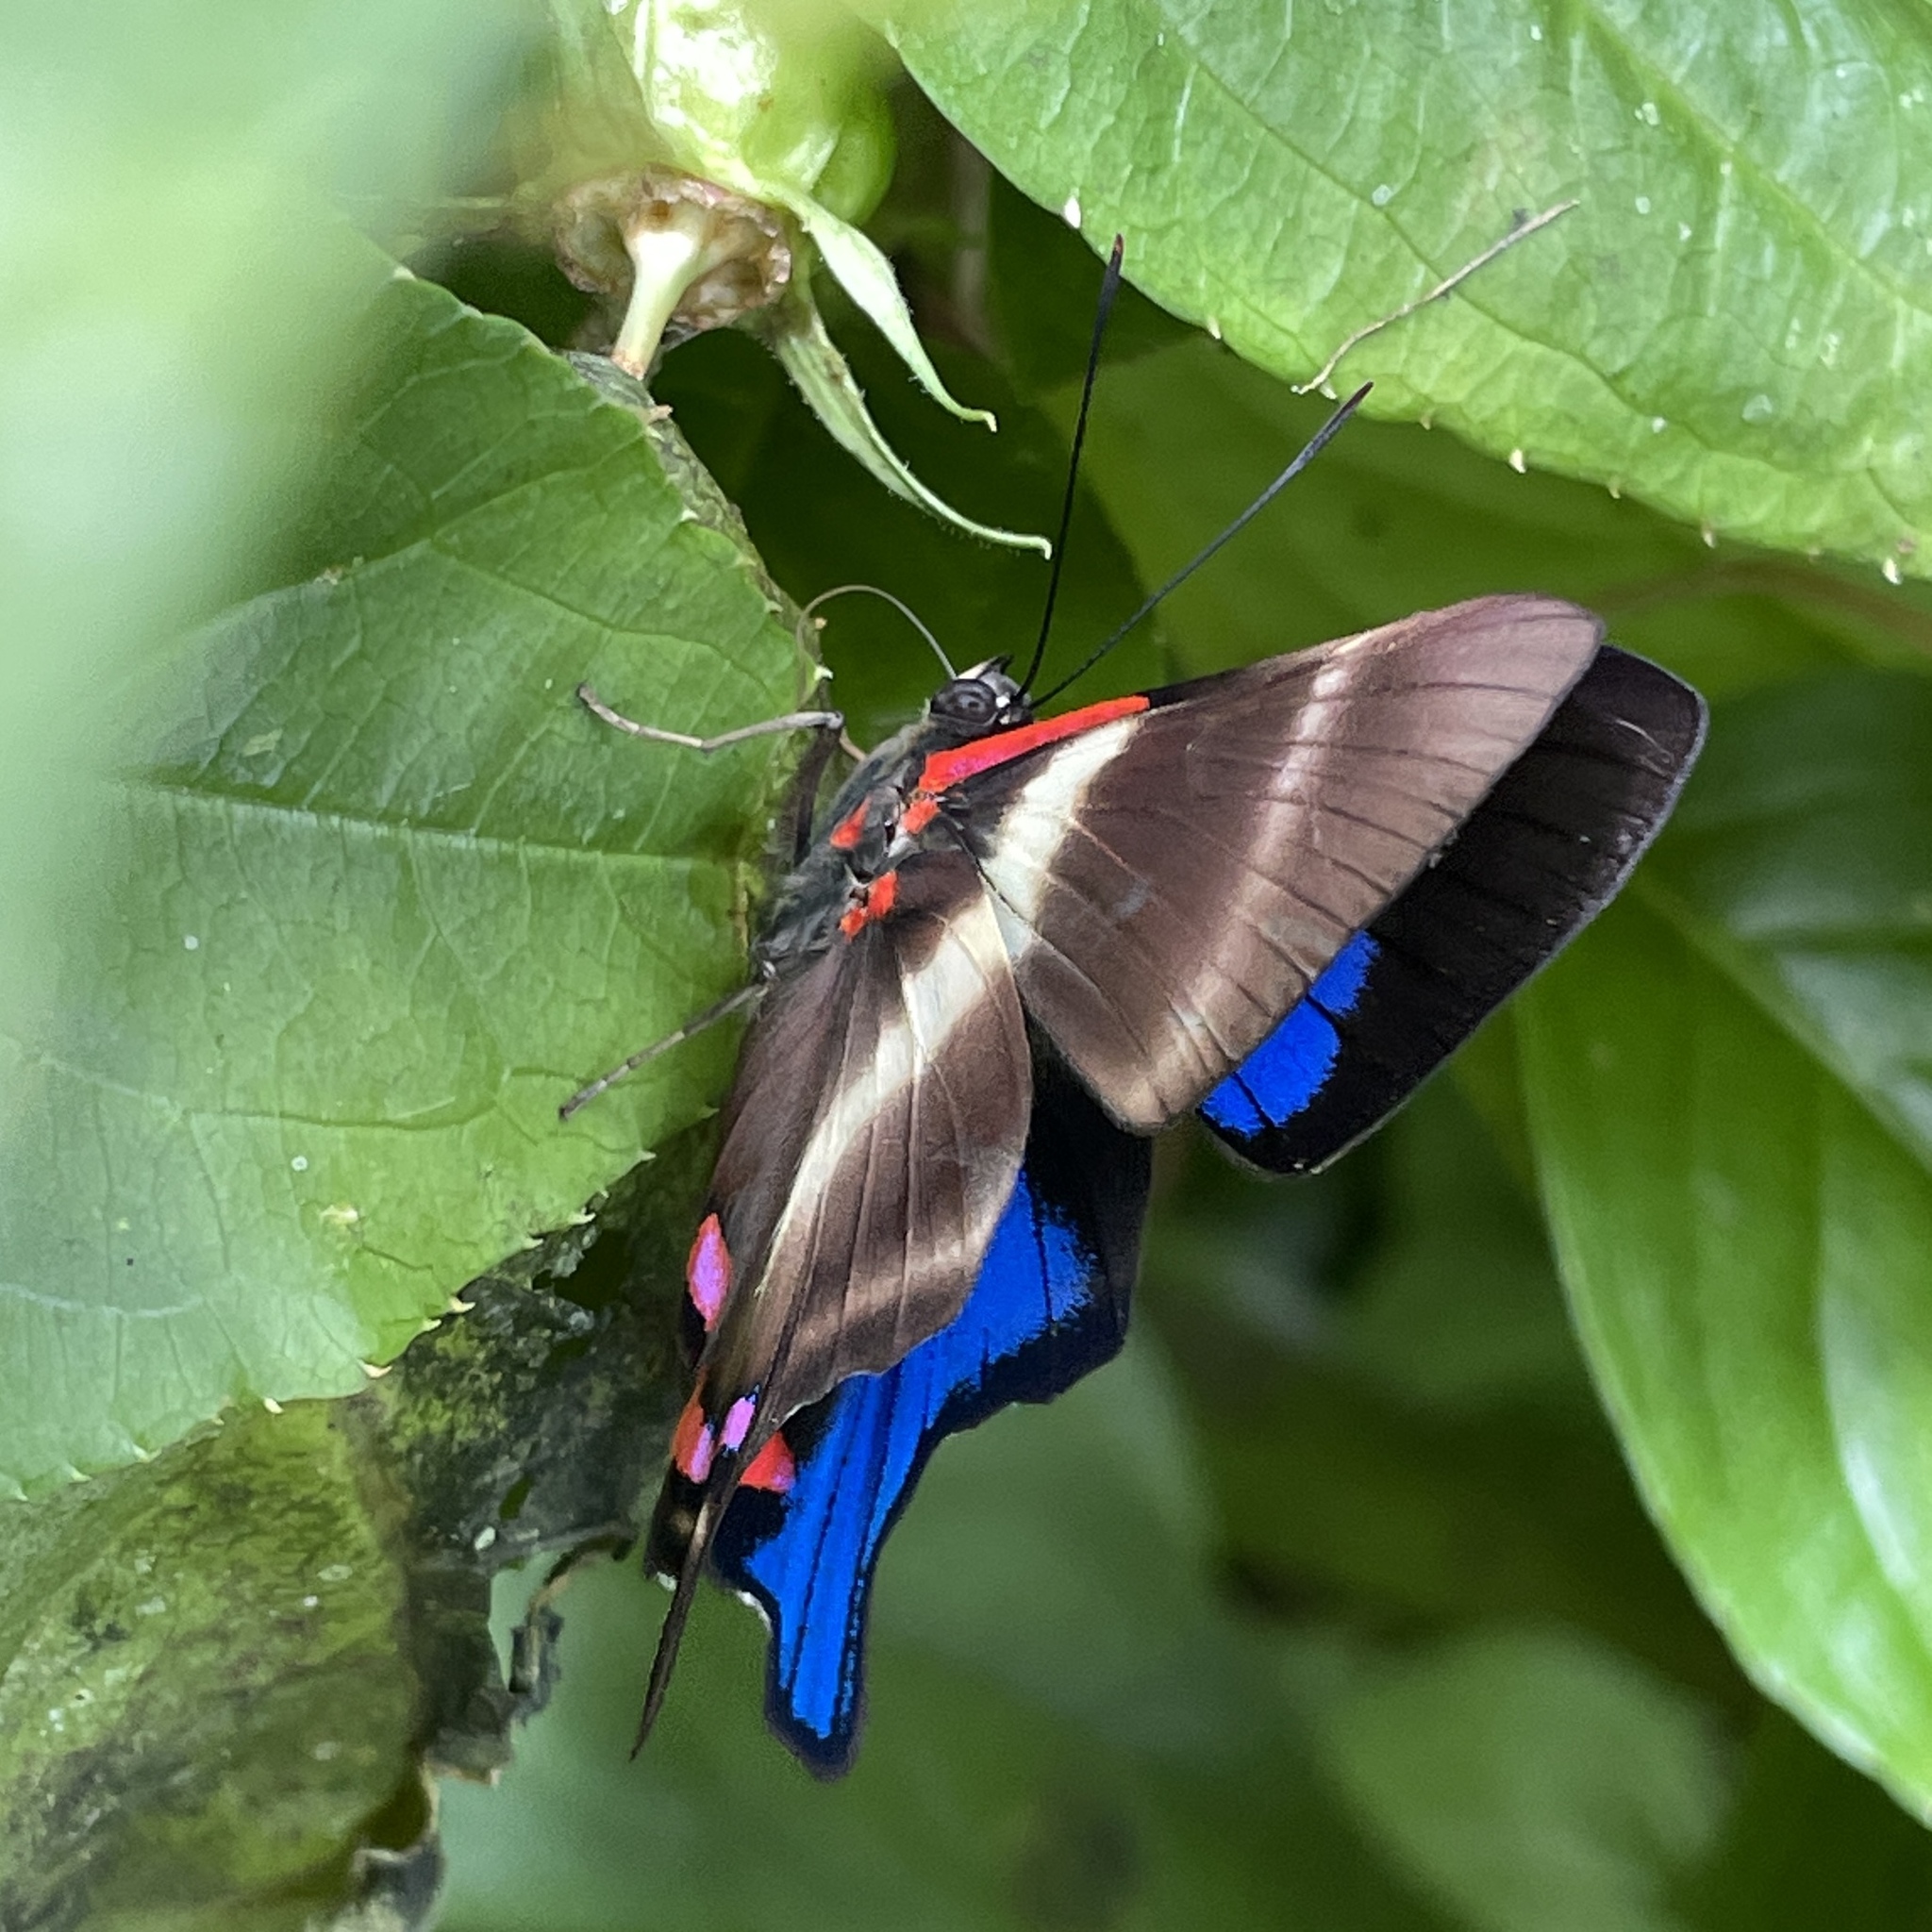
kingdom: Animalia
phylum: Arthropoda
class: Insecta
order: Lepidoptera
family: Riodinidae
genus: Rhetus
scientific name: Rhetus periander
